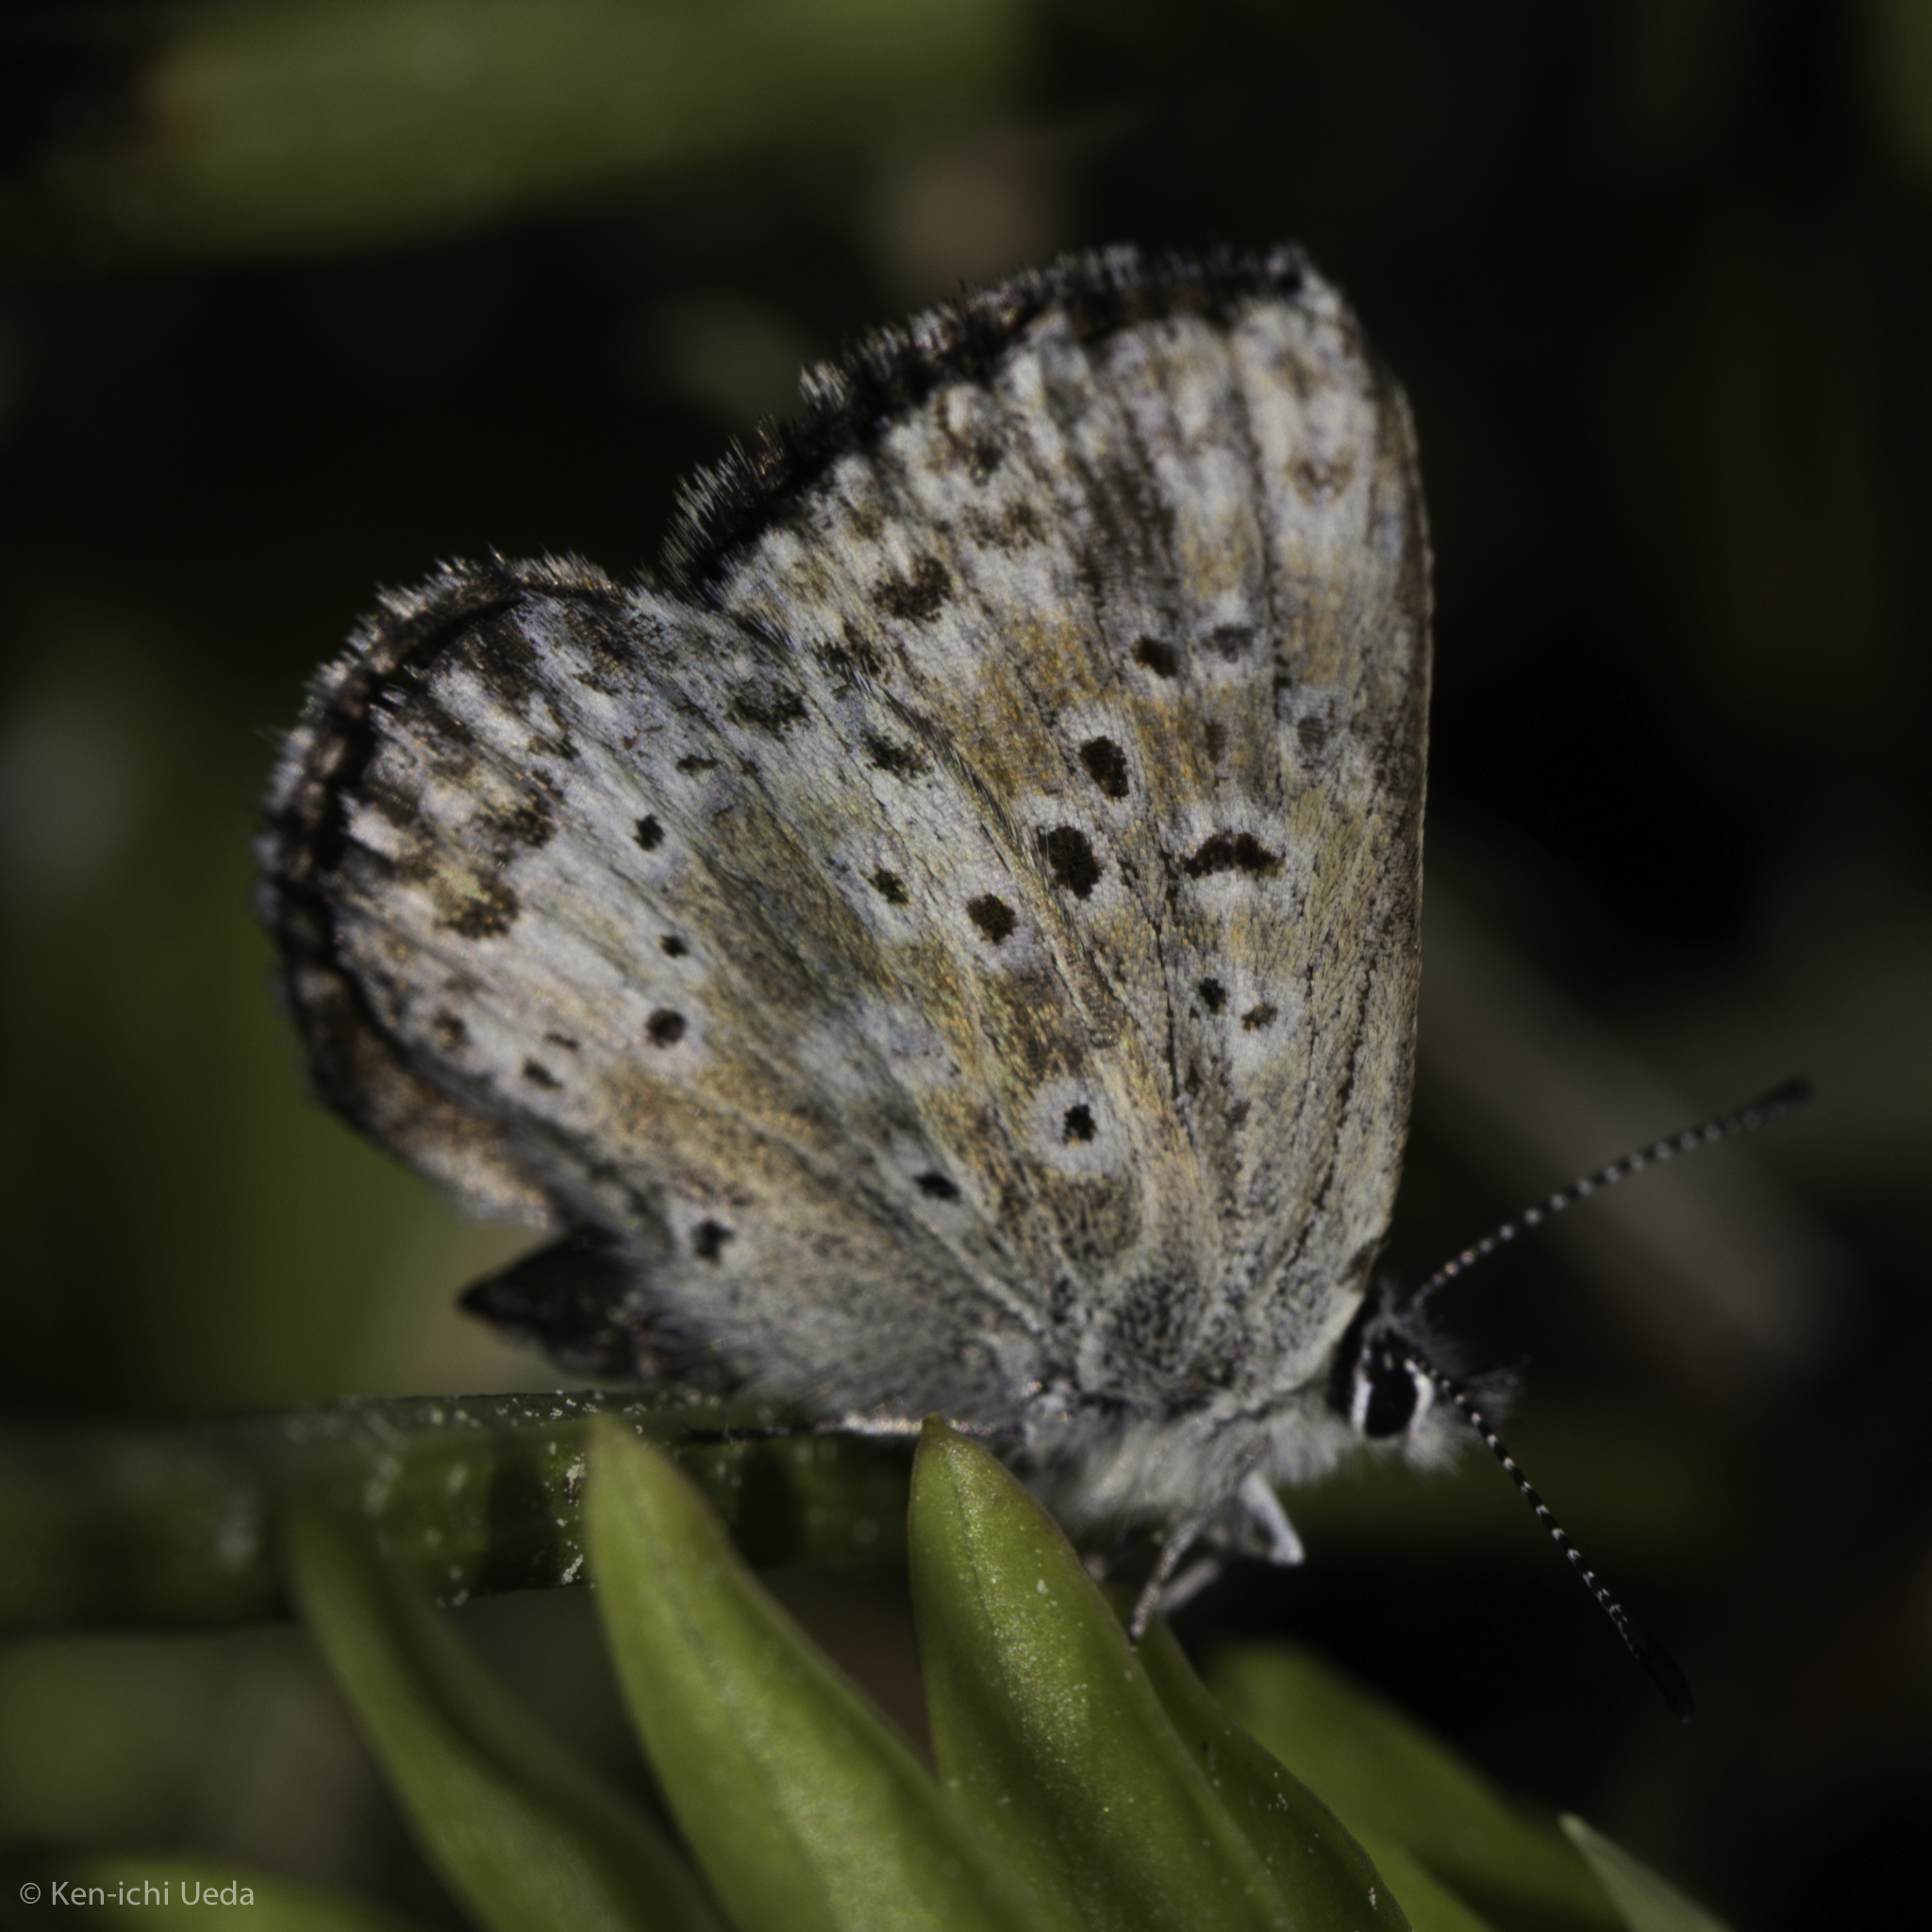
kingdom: Animalia
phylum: Arthropoda
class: Insecta
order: Lepidoptera
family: Lycaenidae
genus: Agriades
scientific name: Agriades podarce
